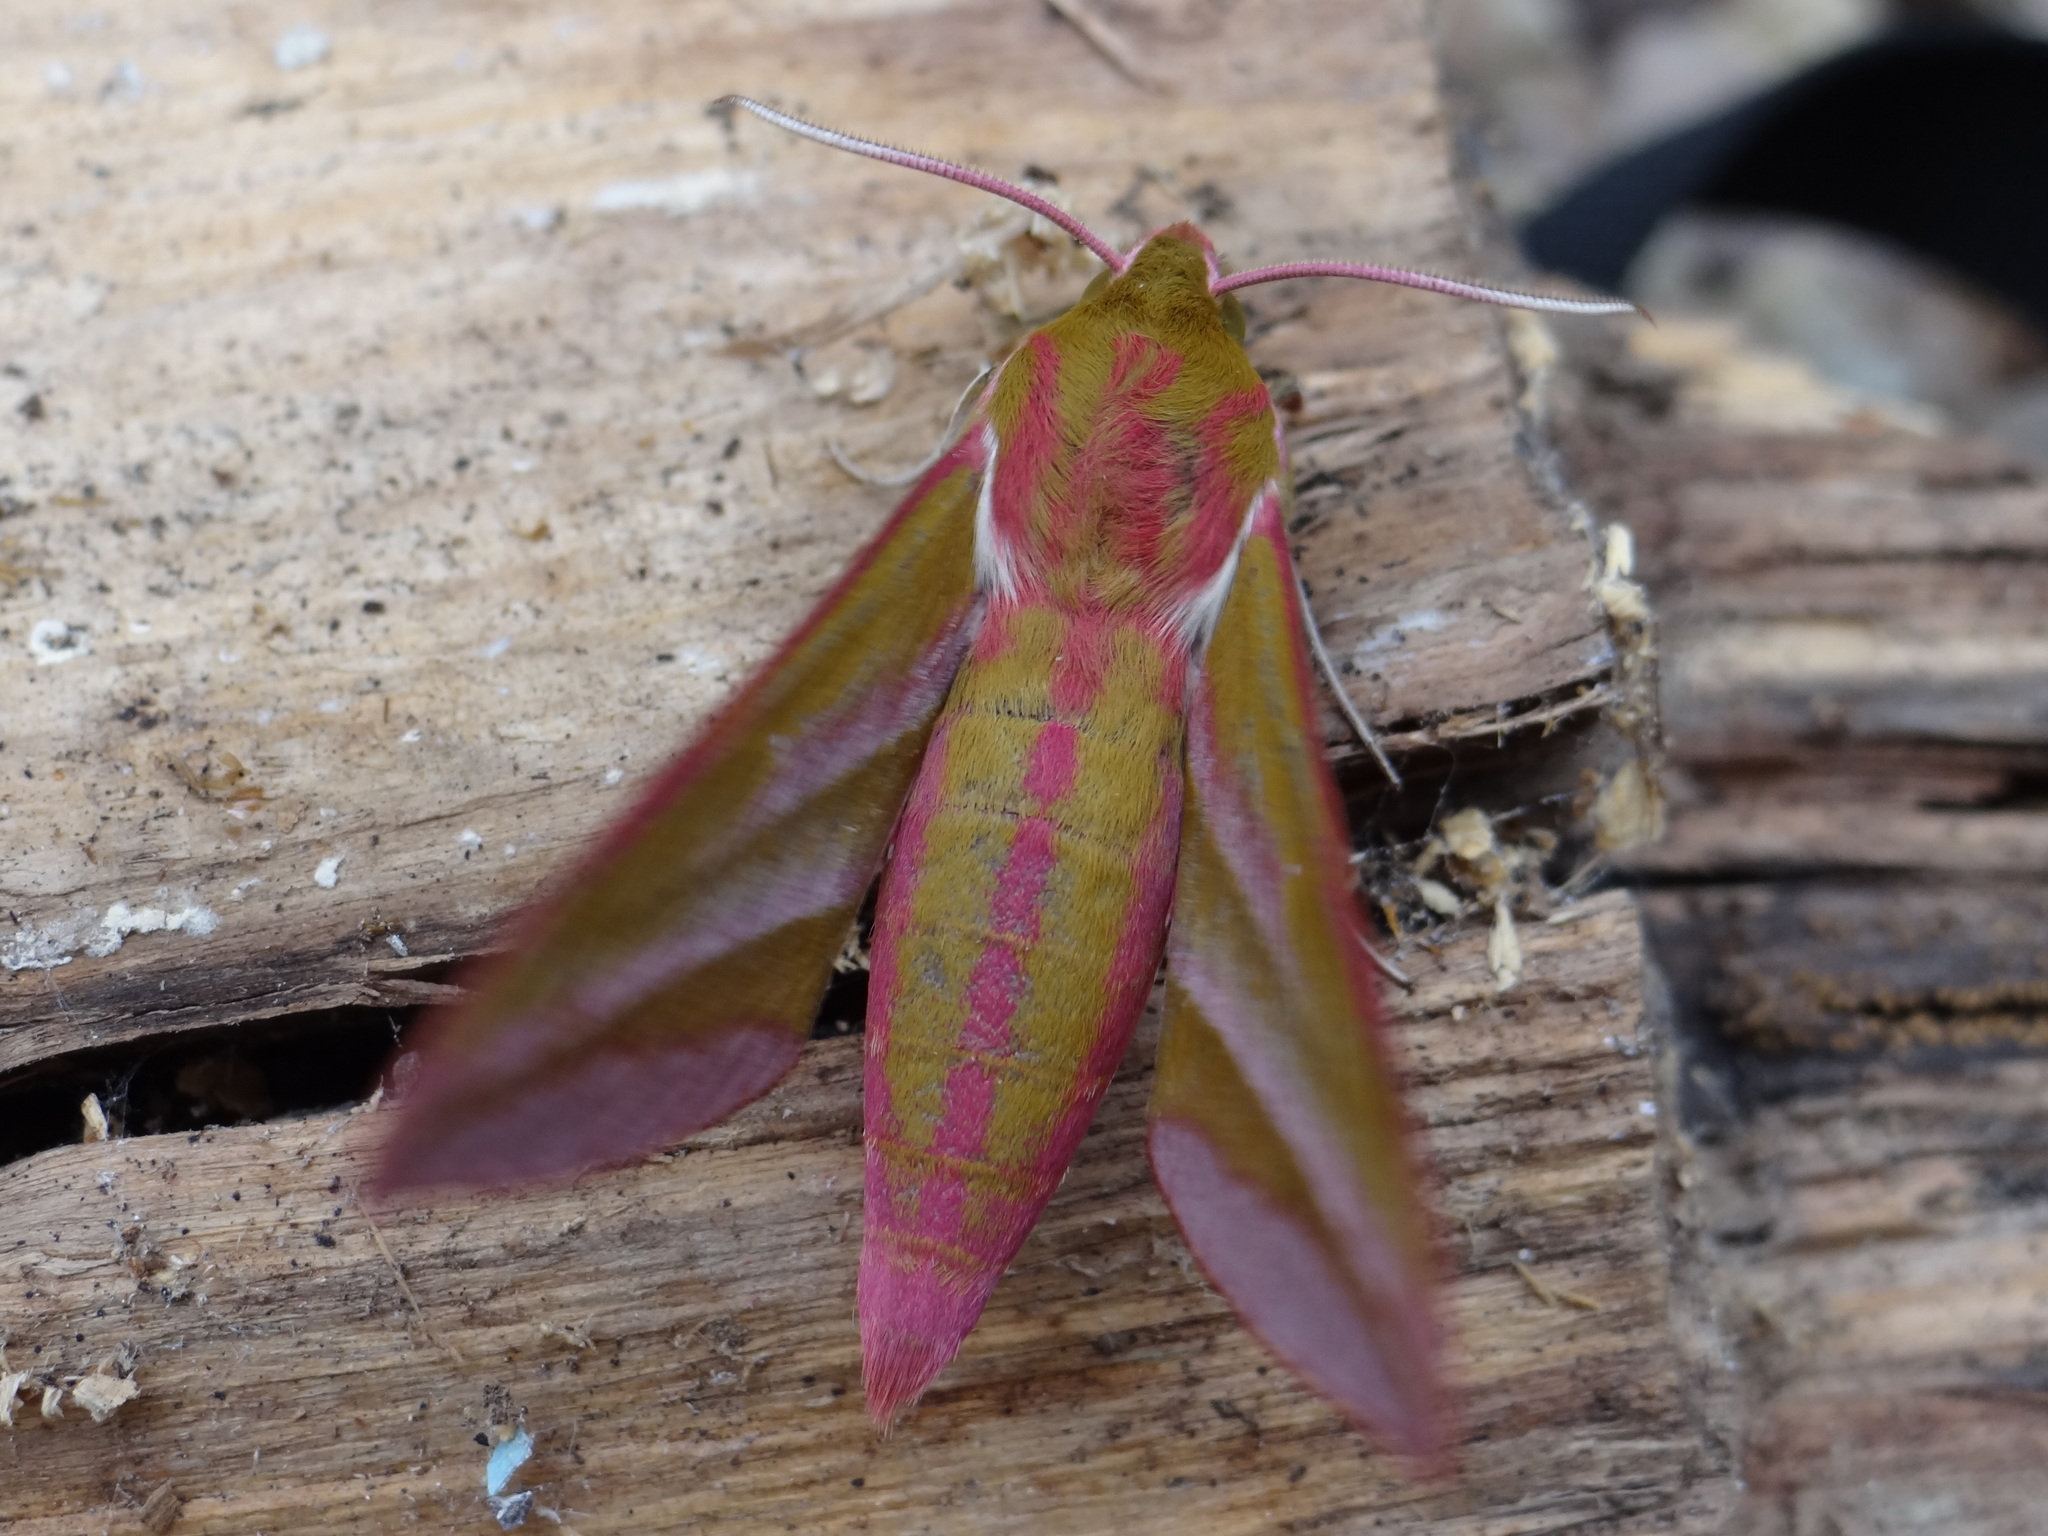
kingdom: Animalia
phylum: Arthropoda
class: Insecta
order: Lepidoptera
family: Sphingidae
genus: Deilephila
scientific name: Deilephila elpenor
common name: Elephant hawk-moth
